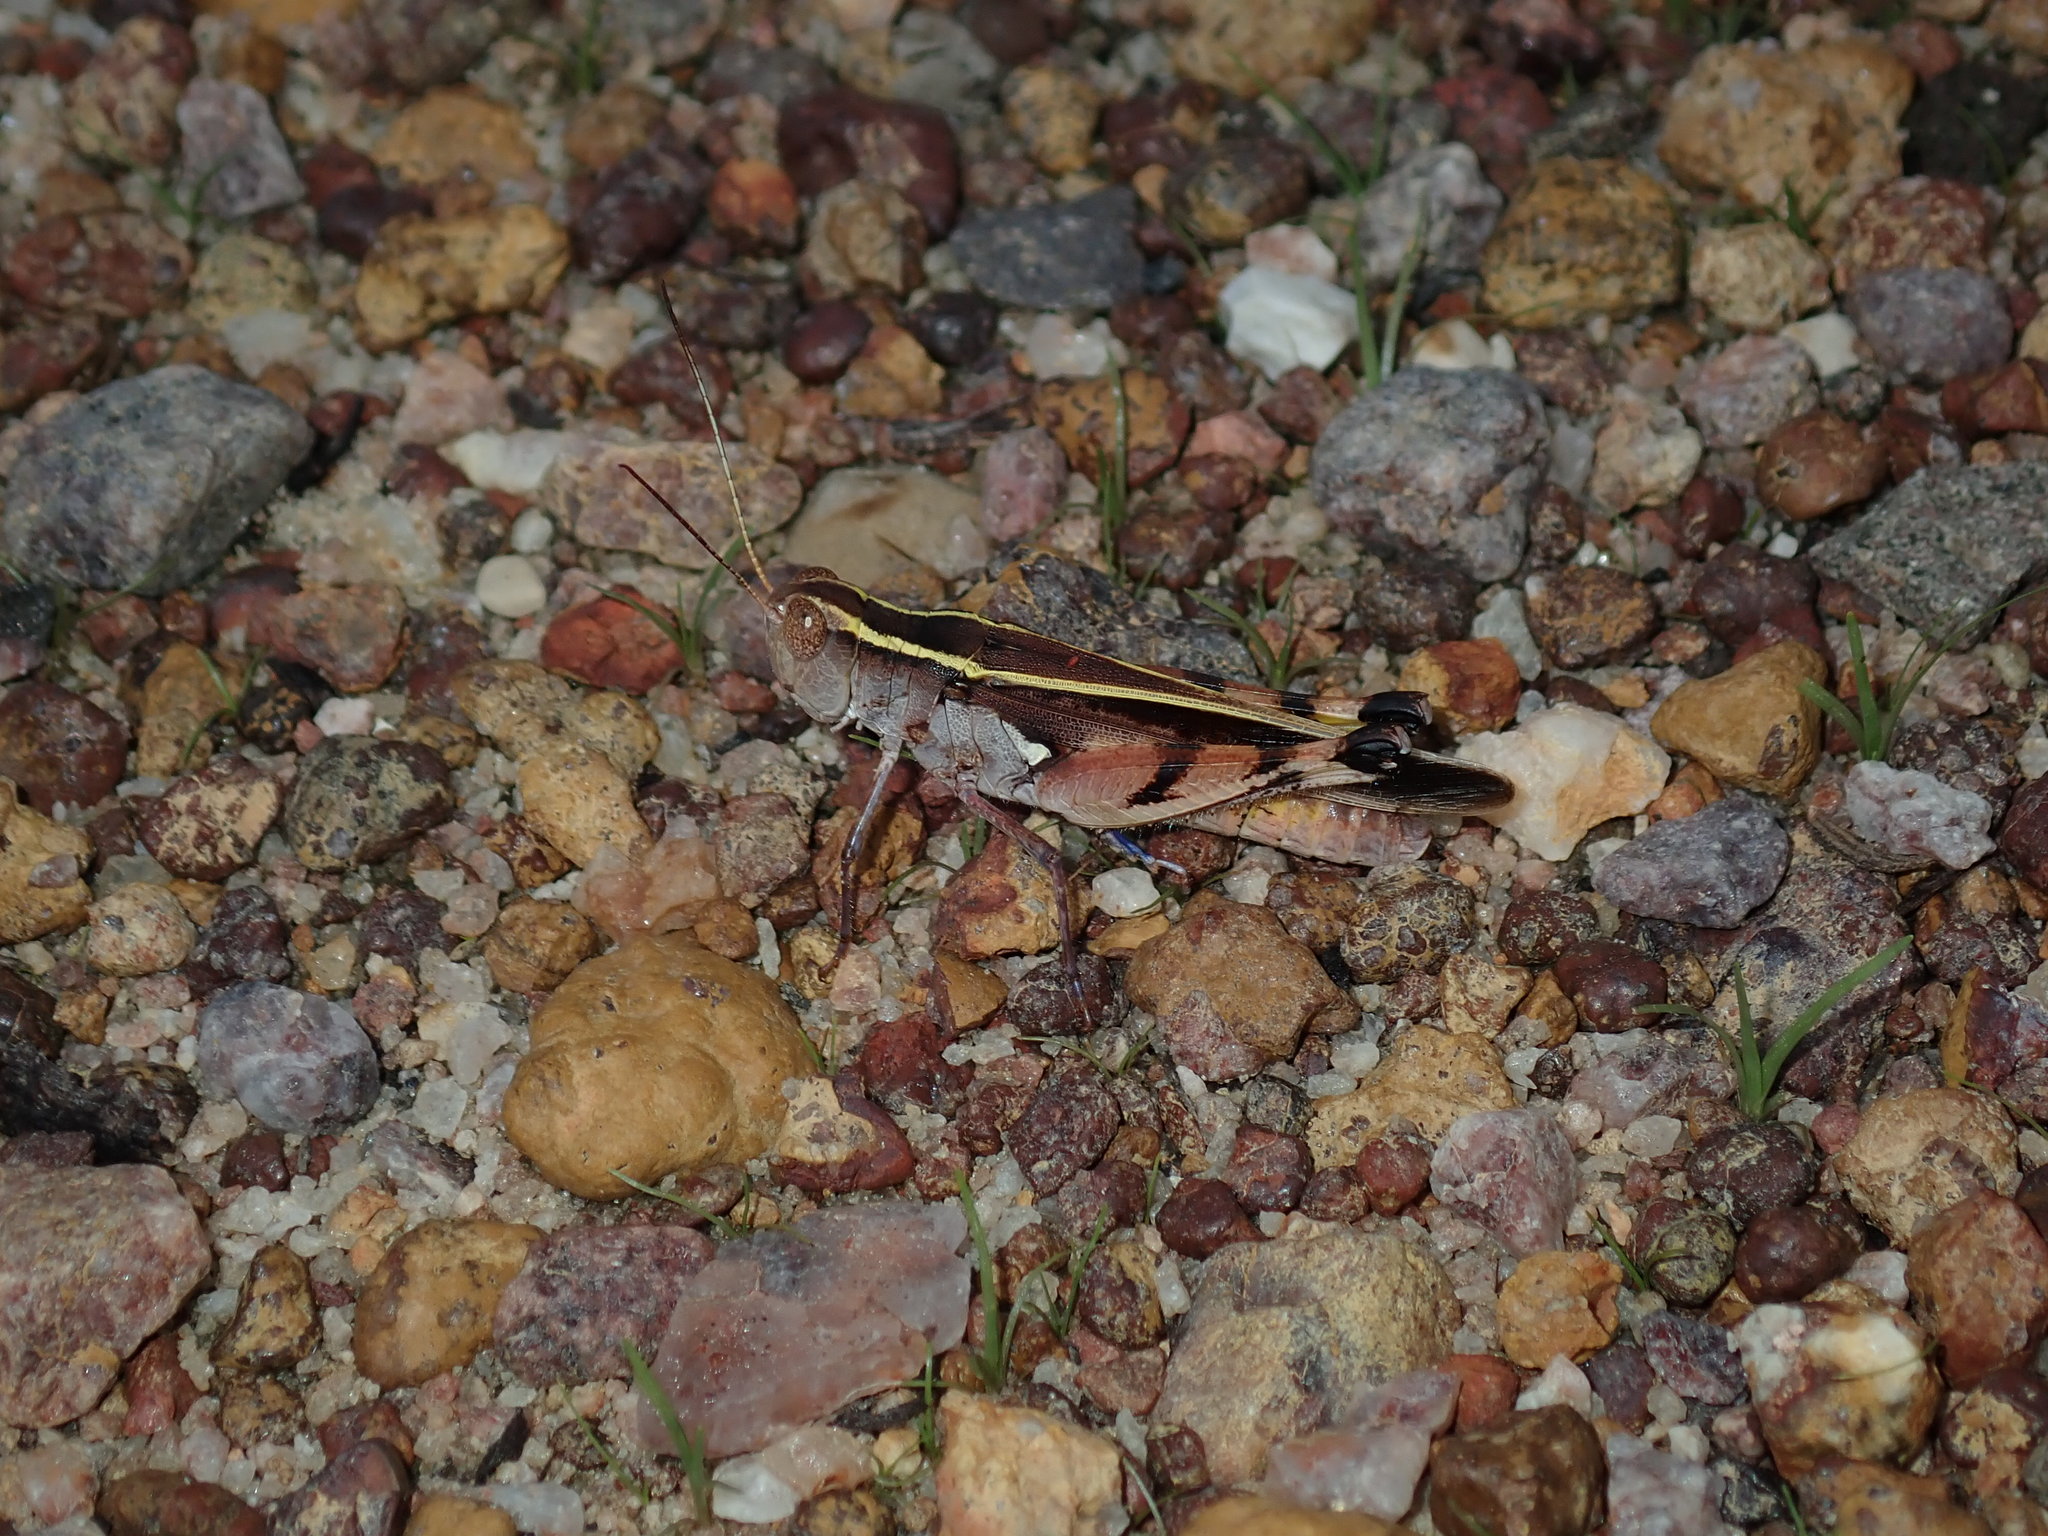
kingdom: Animalia
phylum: Arthropoda
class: Insecta
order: Orthoptera
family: Acrididae
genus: Macrocara
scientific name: Macrocara conglobata
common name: Rainbow grasshopper
